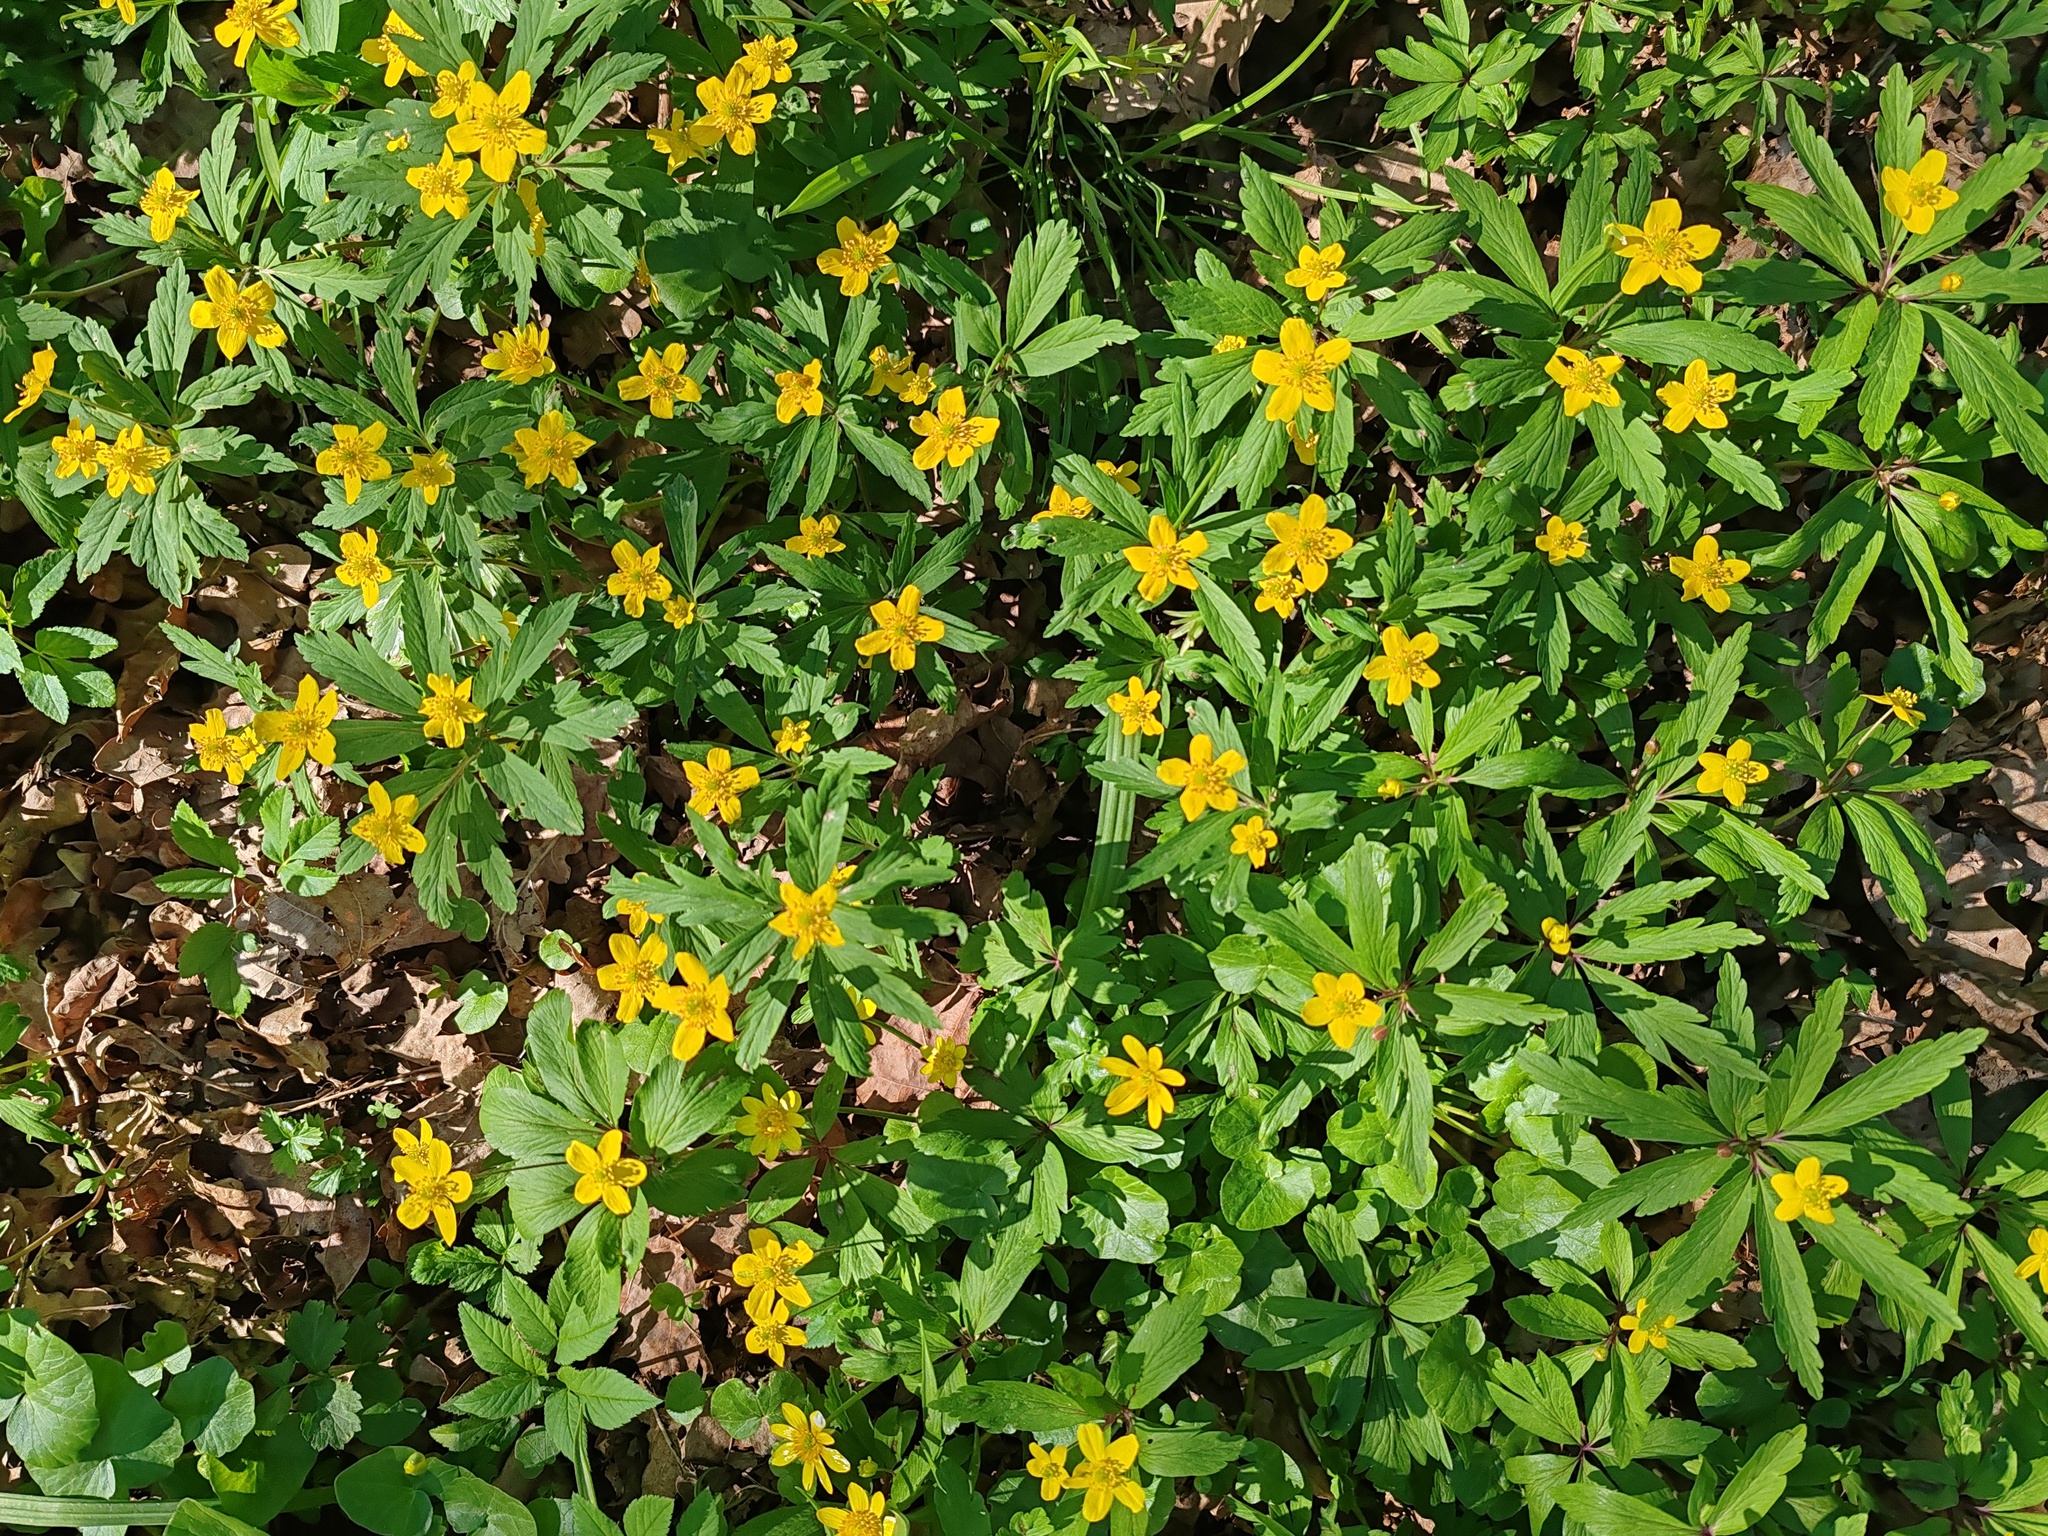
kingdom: Plantae
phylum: Tracheophyta
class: Magnoliopsida
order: Ranunculales
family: Ranunculaceae
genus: Anemone
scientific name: Anemone ranunculoides
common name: Yellow anemone
